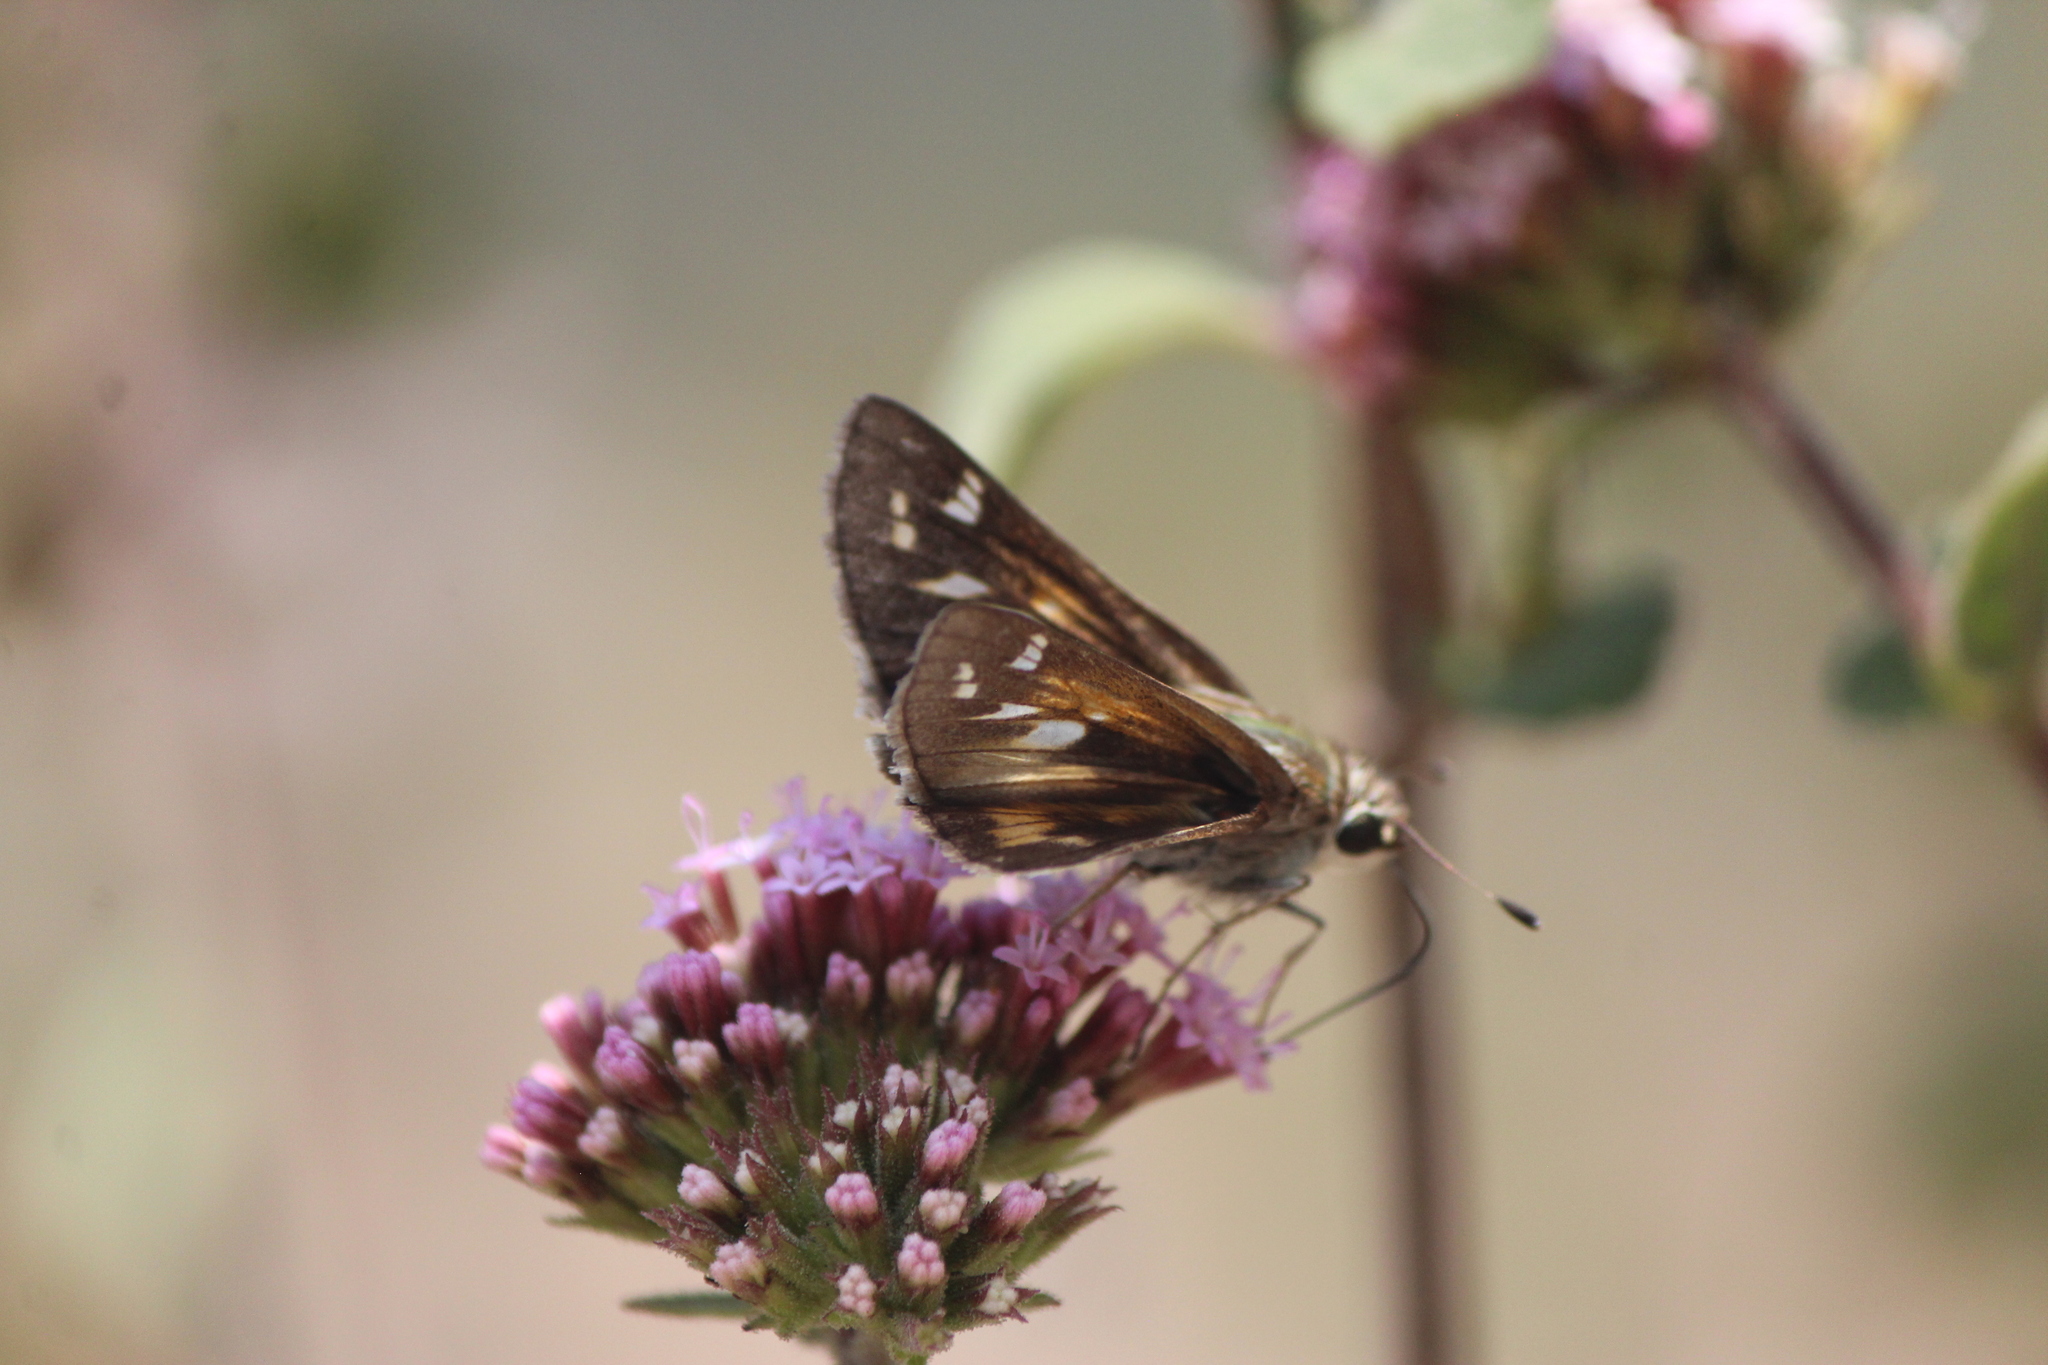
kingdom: Animalia
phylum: Arthropoda
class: Insecta
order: Lepidoptera
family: Hesperiidae
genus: Atalopedes
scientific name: Atalopedes
